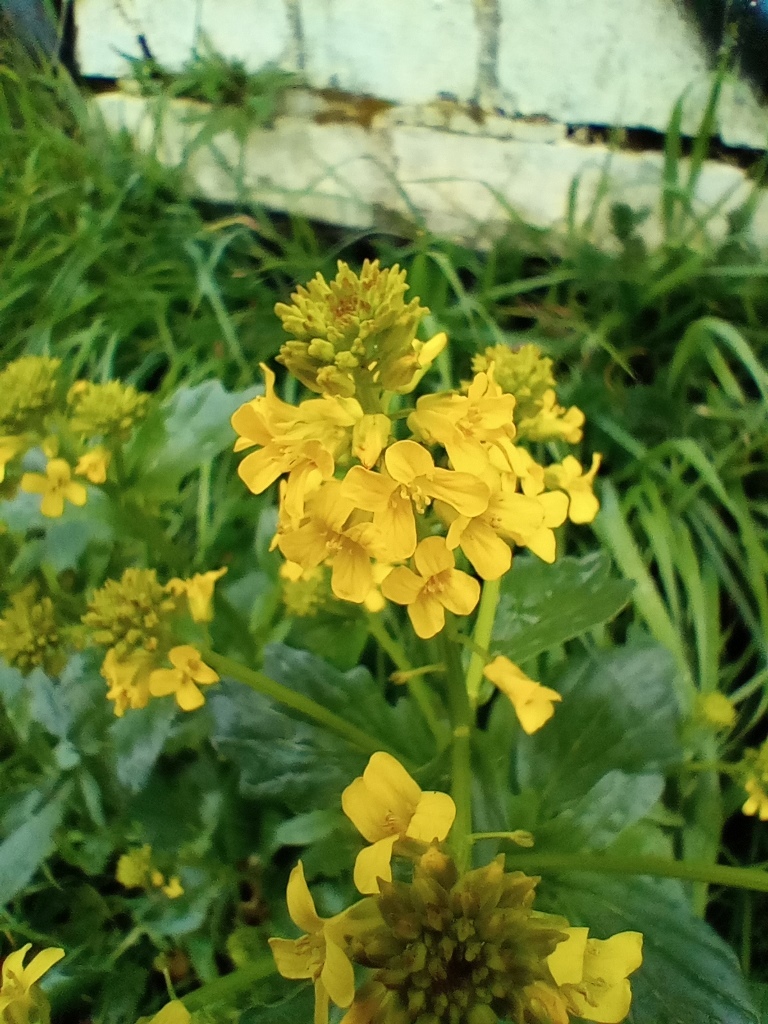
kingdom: Plantae
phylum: Tracheophyta
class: Magnoliopsida
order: Brassicales
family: Brassicaceae
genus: Barbarea
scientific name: Barbarea vulgaris
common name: Cressy-greens
